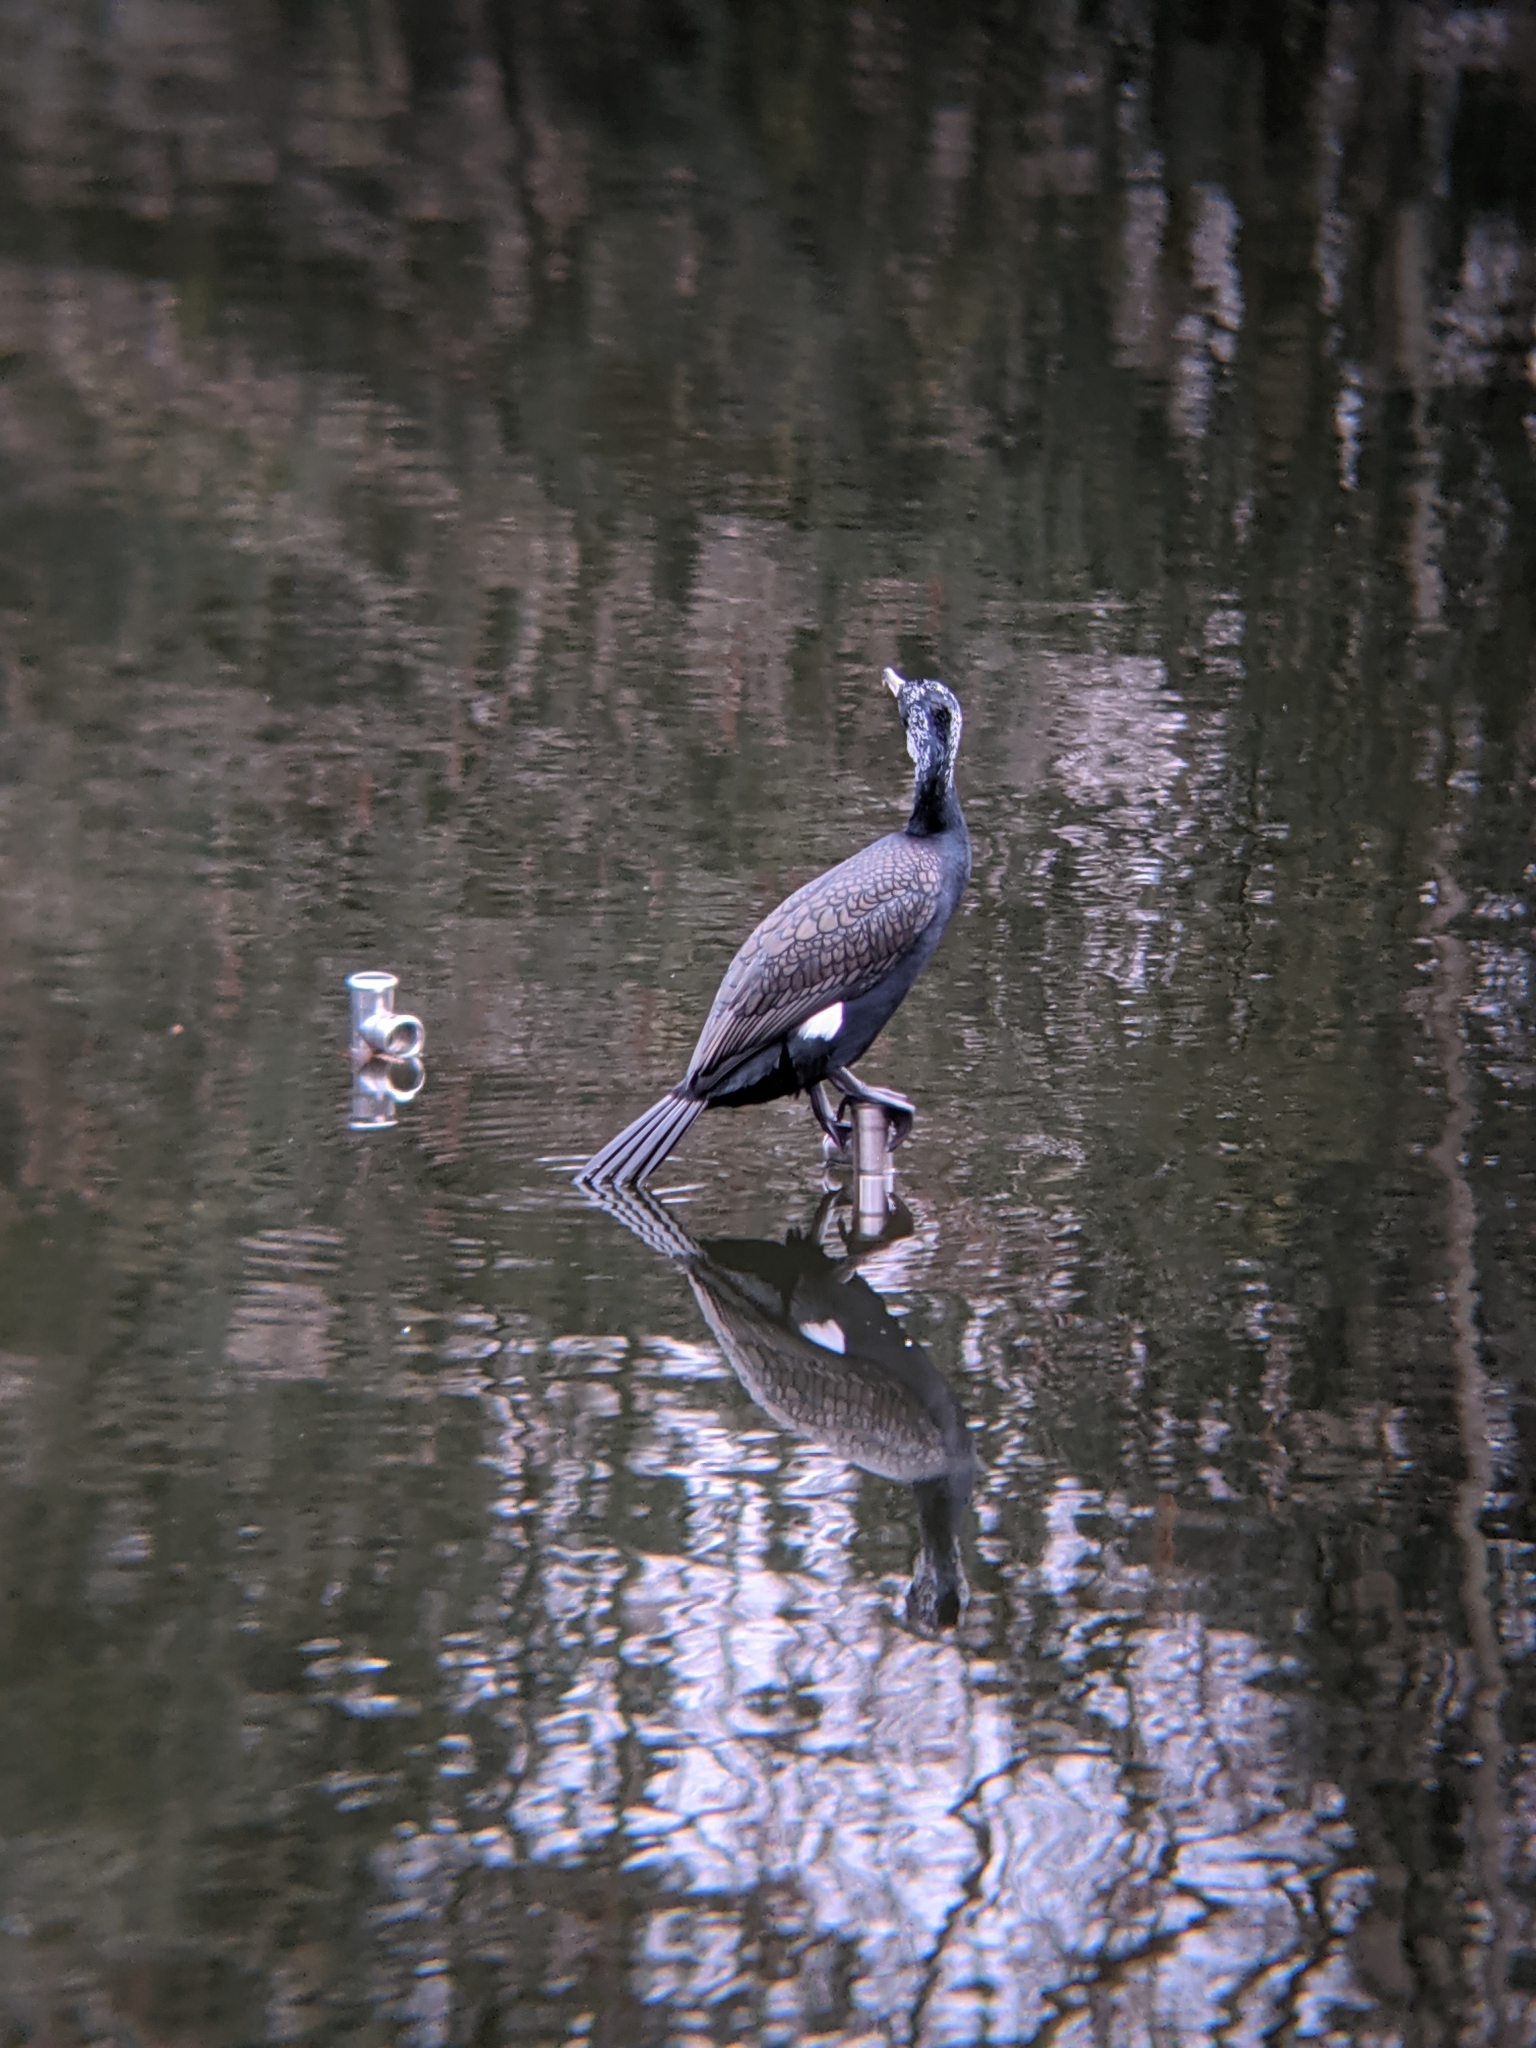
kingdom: Animalia
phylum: Chordata
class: Aves
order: Suliformes
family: Phalacrocoracidae
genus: Phalacrocorax
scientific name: Phalacrocorax carbo
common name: Great cormorant
